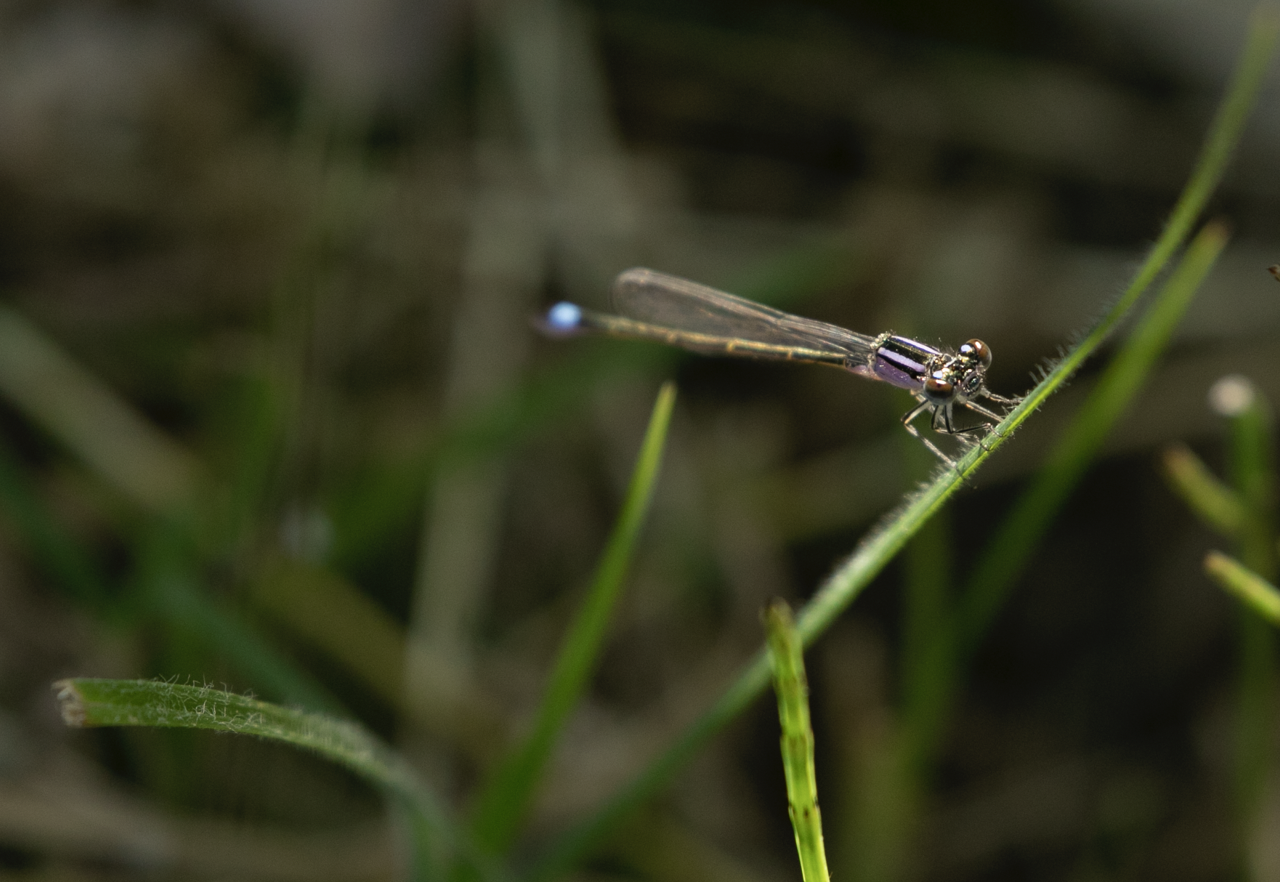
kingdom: Animalia
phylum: Arthropoda
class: Insecta
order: Odonata
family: Coenagrionidae
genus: Ischnura
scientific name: Ischnura elegans
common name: Blue-tailed damselfly
